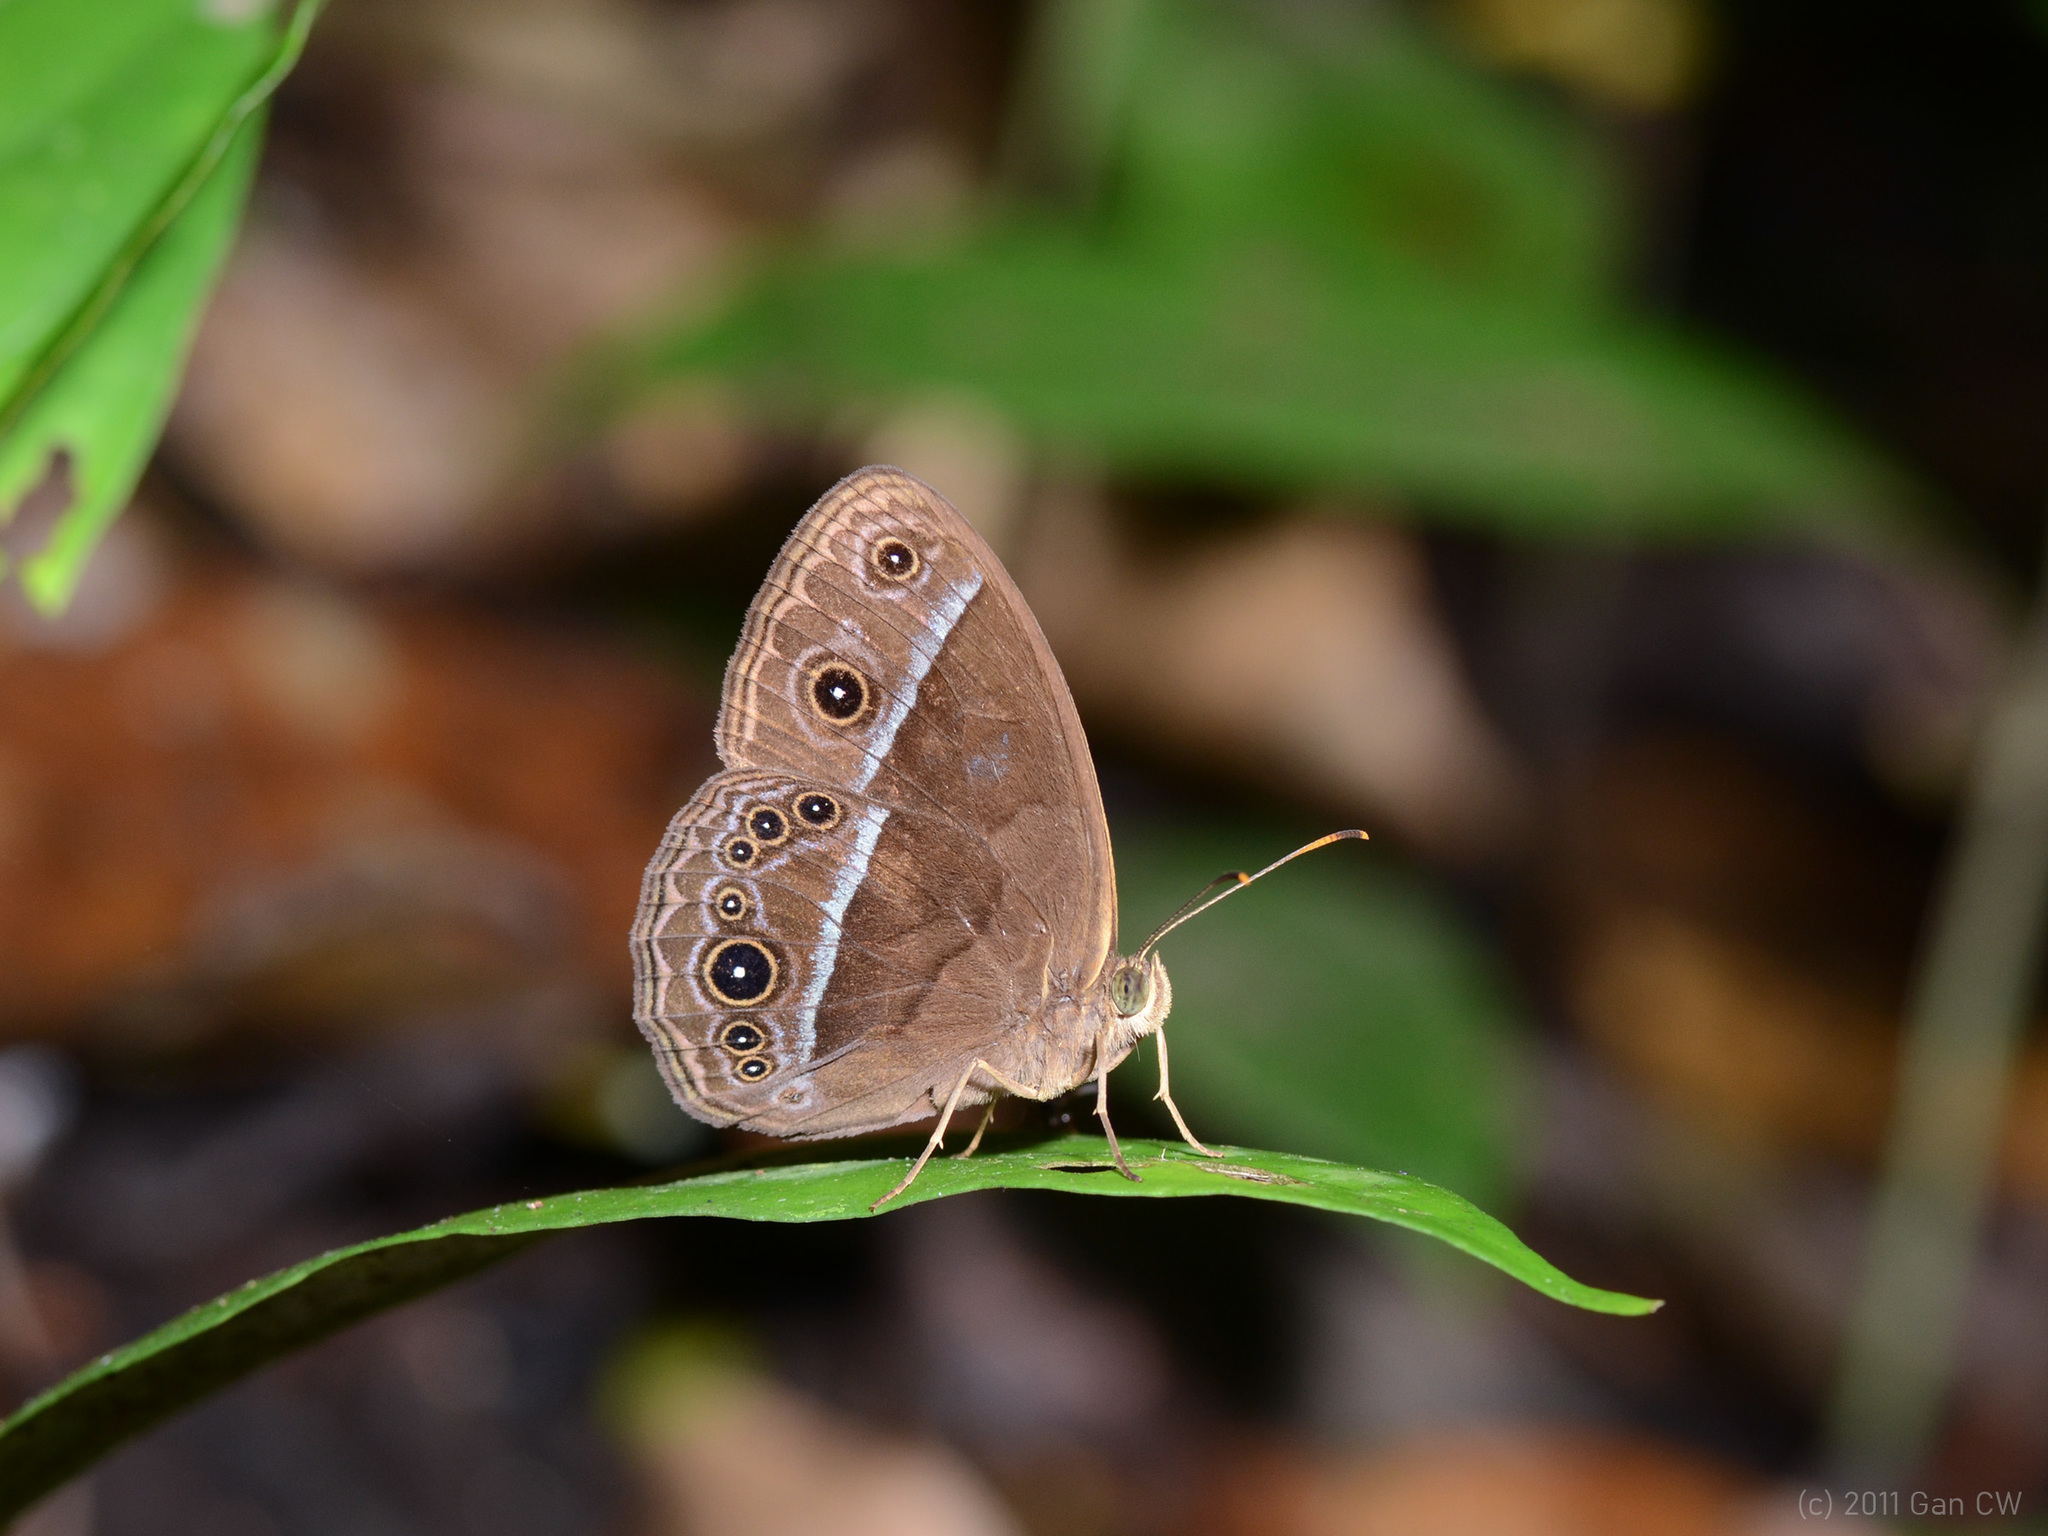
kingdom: Animalia
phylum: Arthropoda
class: Insecta
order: Lepidoptera
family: Nymphalidae
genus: Mycalesis
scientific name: Mycalesis oroatis
